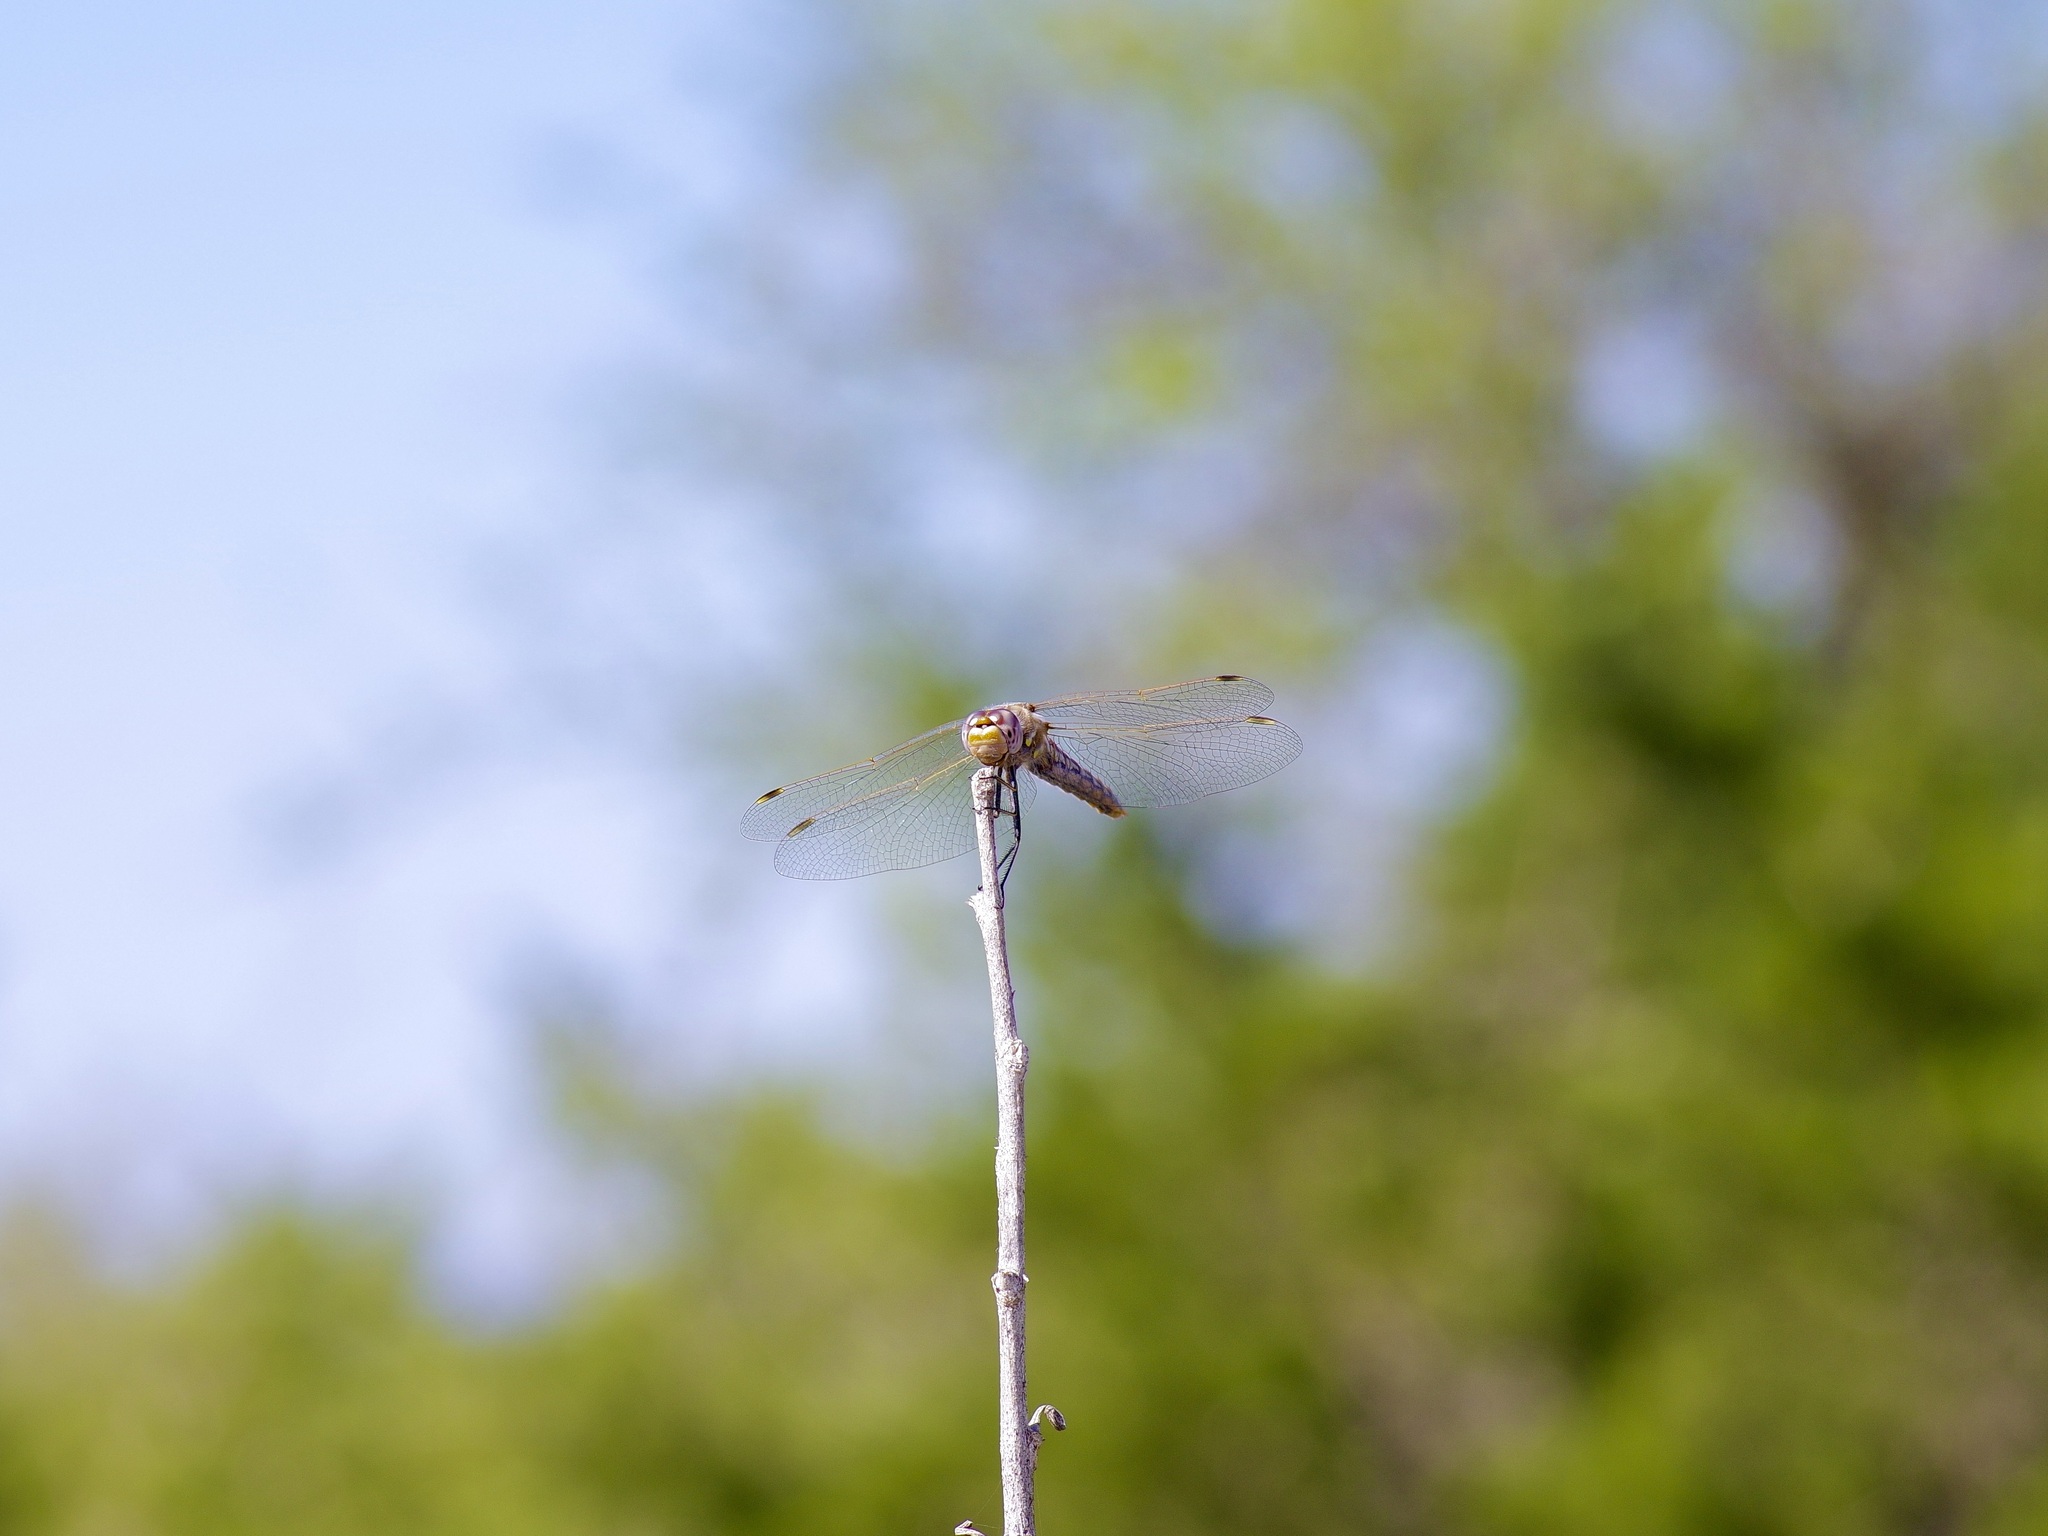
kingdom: Animalia
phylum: Arthropoda
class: Insecta
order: Odonata
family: Libellulidae
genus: Sympetrum
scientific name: Sympetrum corruptum
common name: Variegated meadowhawk
